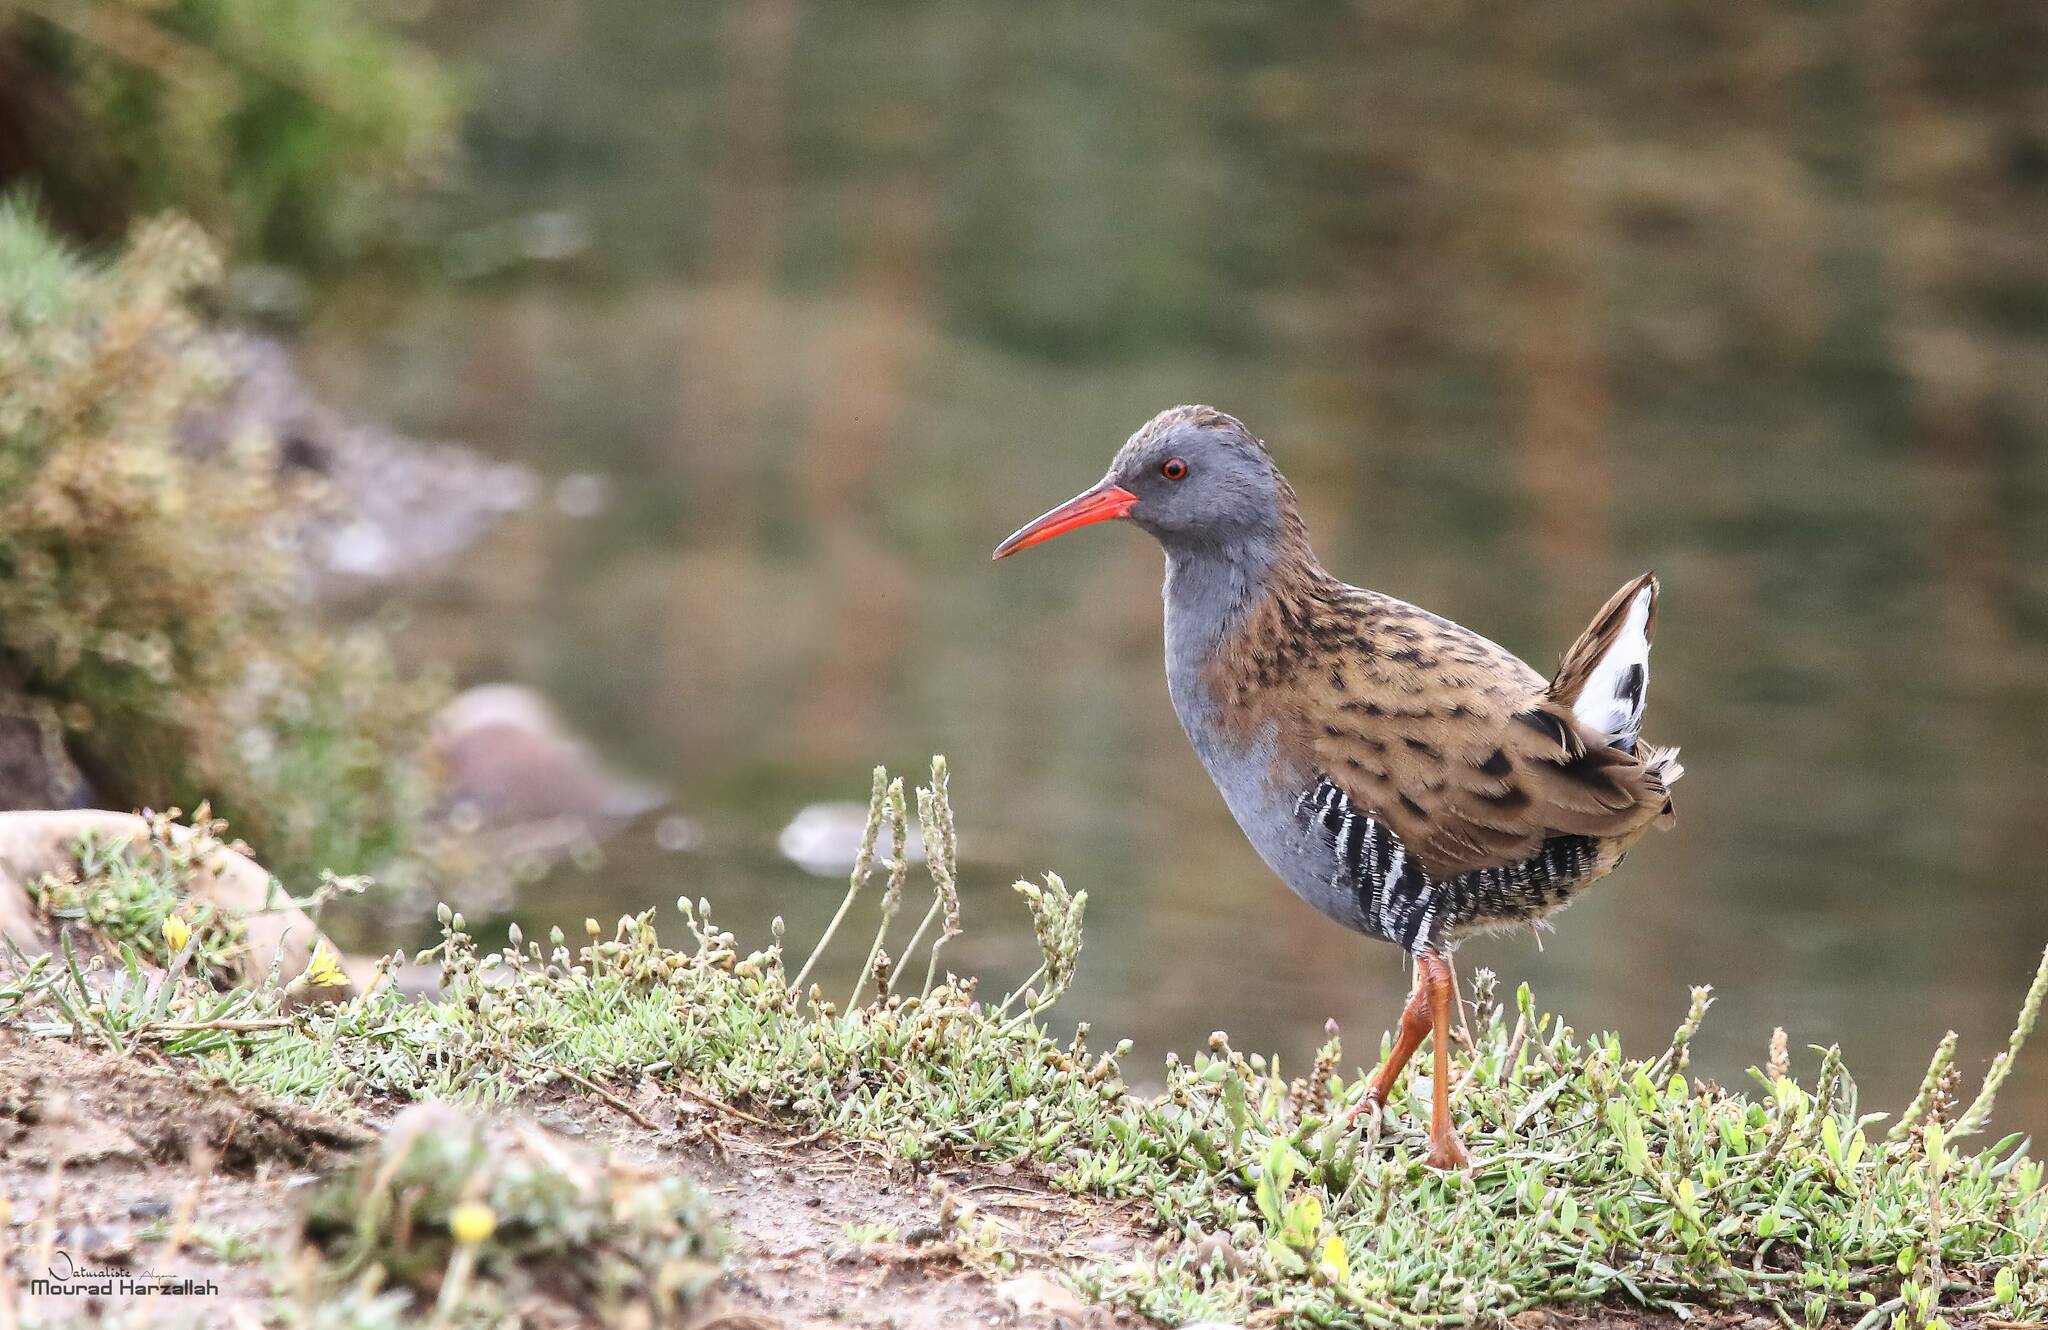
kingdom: Animalia
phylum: Chordata
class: Aves
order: Gruiformes
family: Rallidae
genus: Rallus
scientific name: Rallus aquaticus
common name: Water rail
